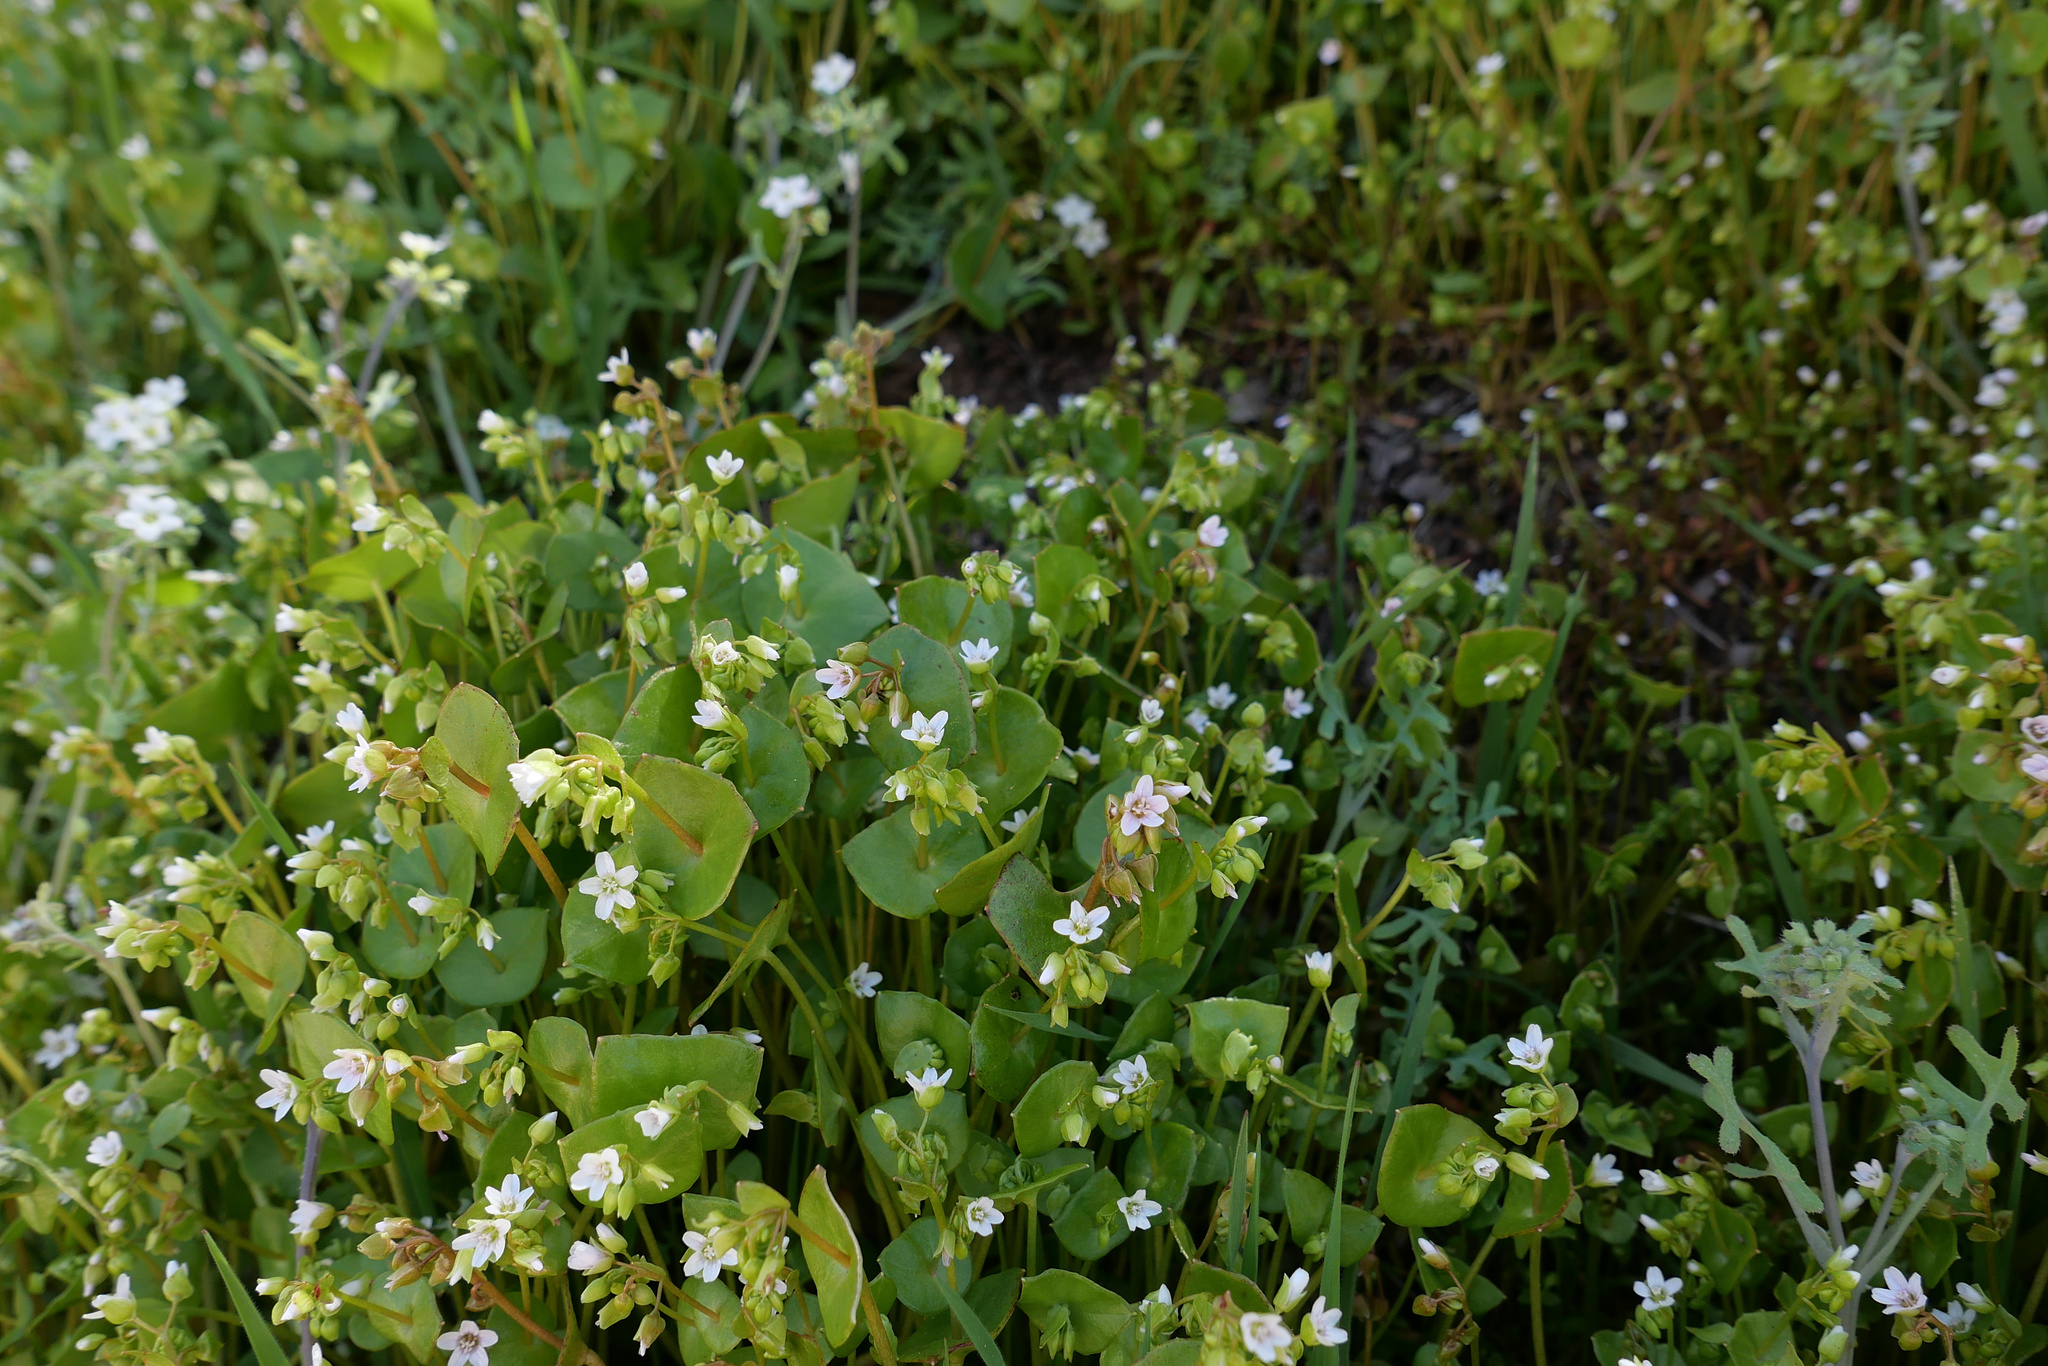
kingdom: Plantae
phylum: Tracheophyta
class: Magnoliopsida
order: Caryophyllales
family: Montiaceae
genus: Claytonia
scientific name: Claytonia perfoliata
